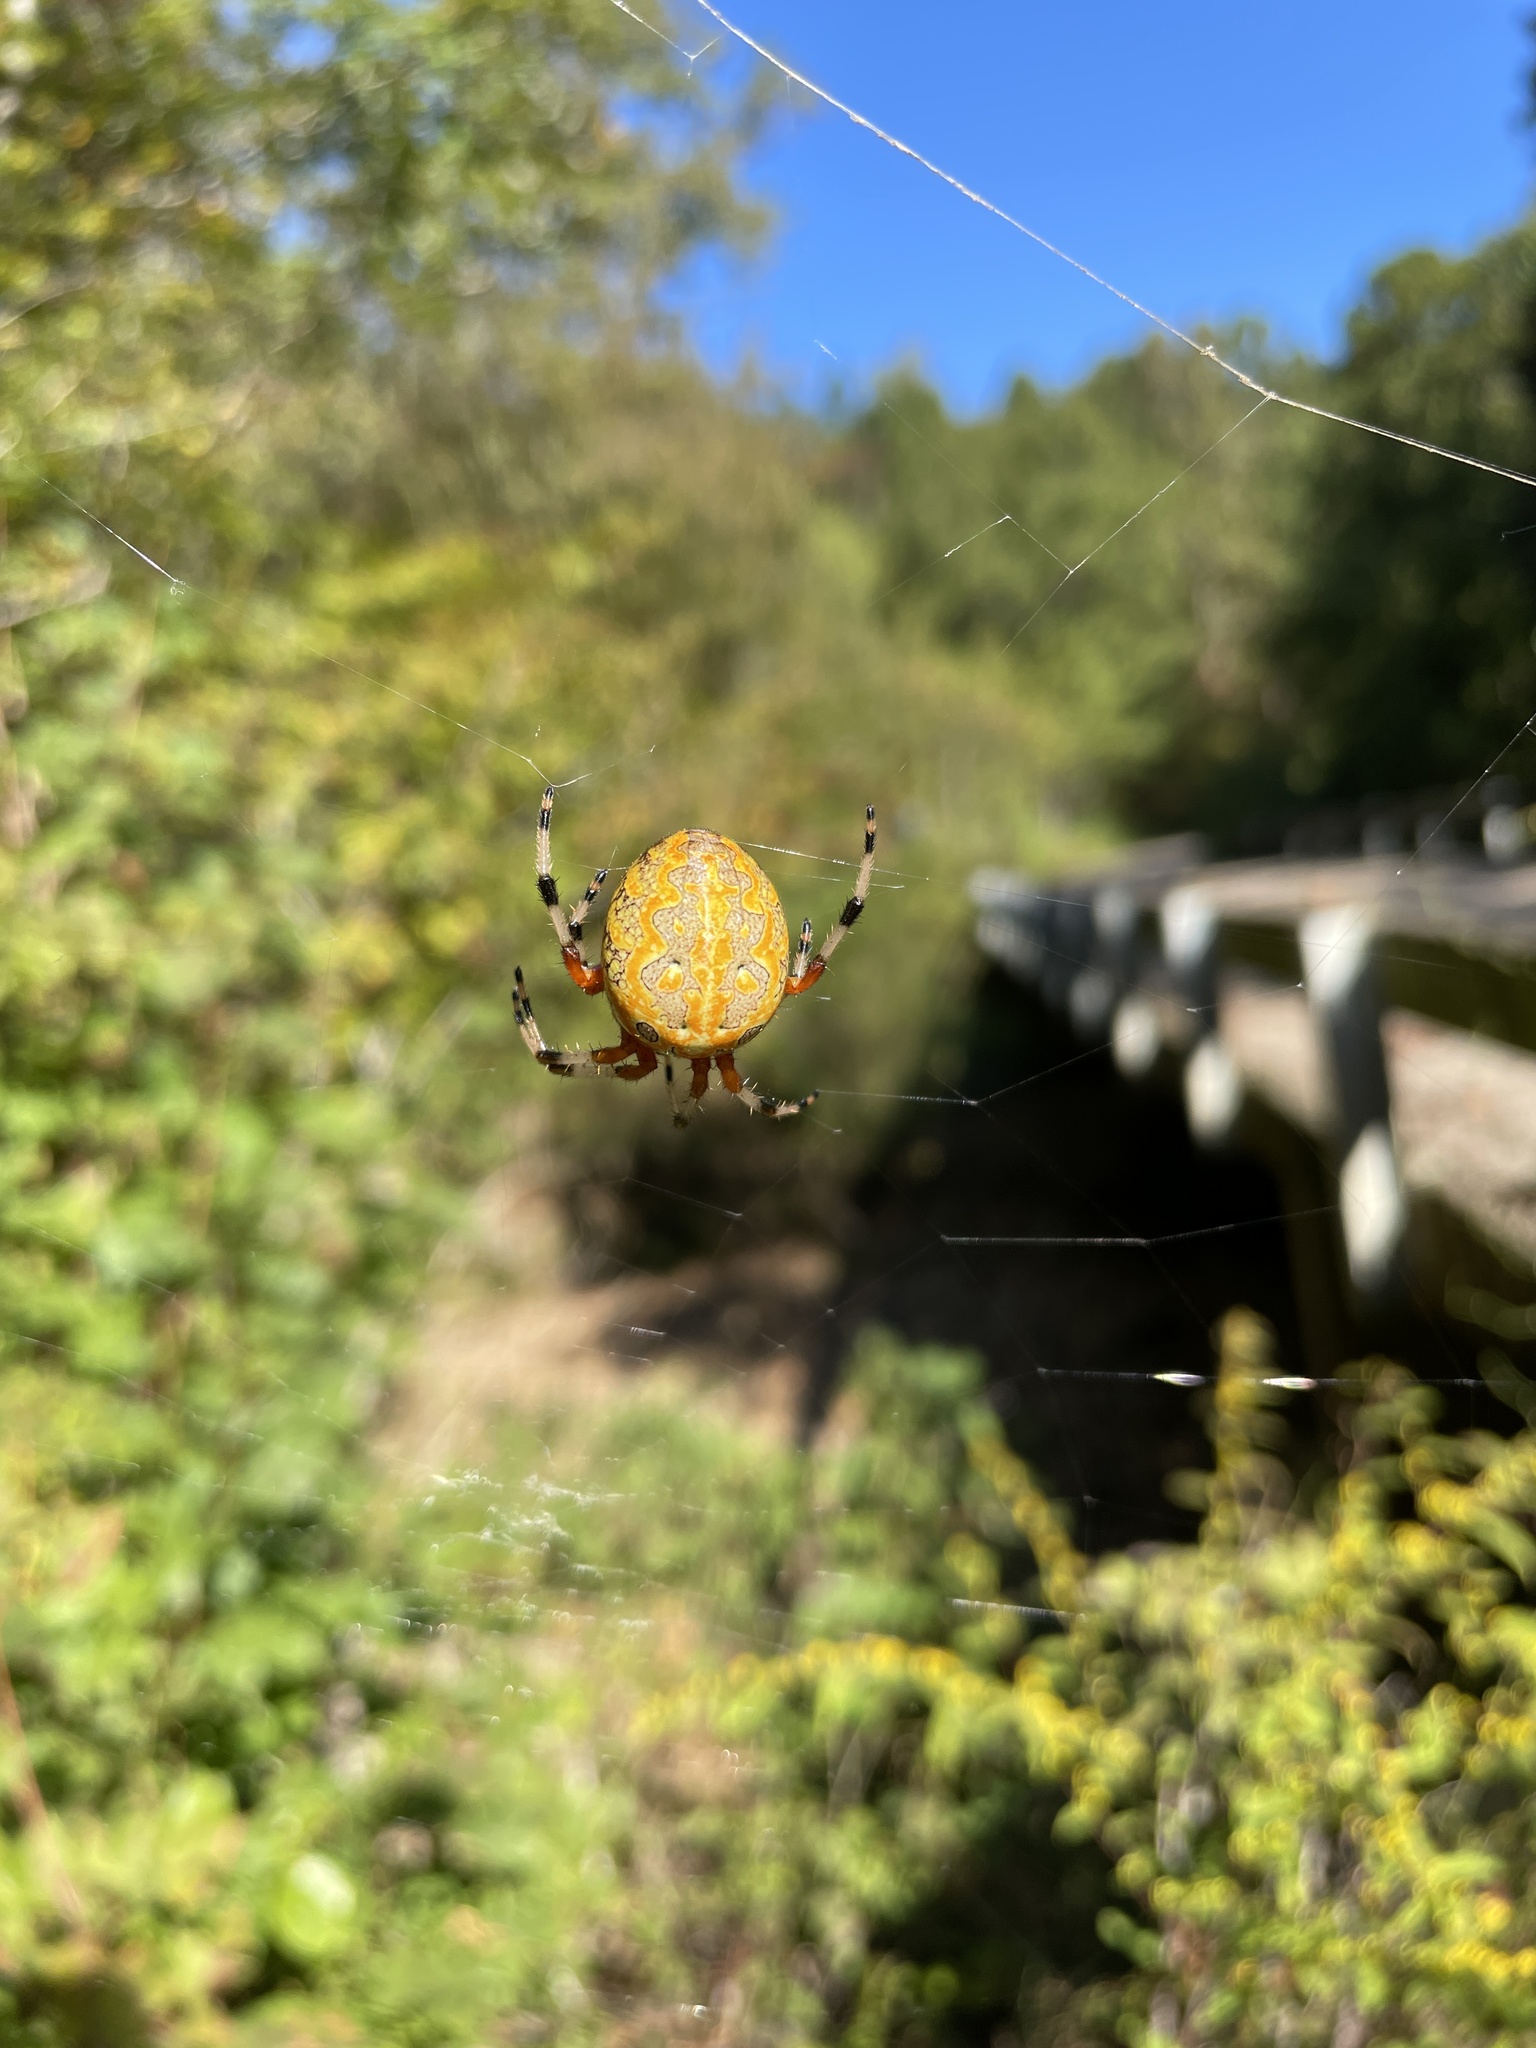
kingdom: Animalia
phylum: Arthropoda
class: Arachnida
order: Araneae
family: Araneidae
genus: Araneus
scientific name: Araneus marmoreus
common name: Marbled orbweaver
